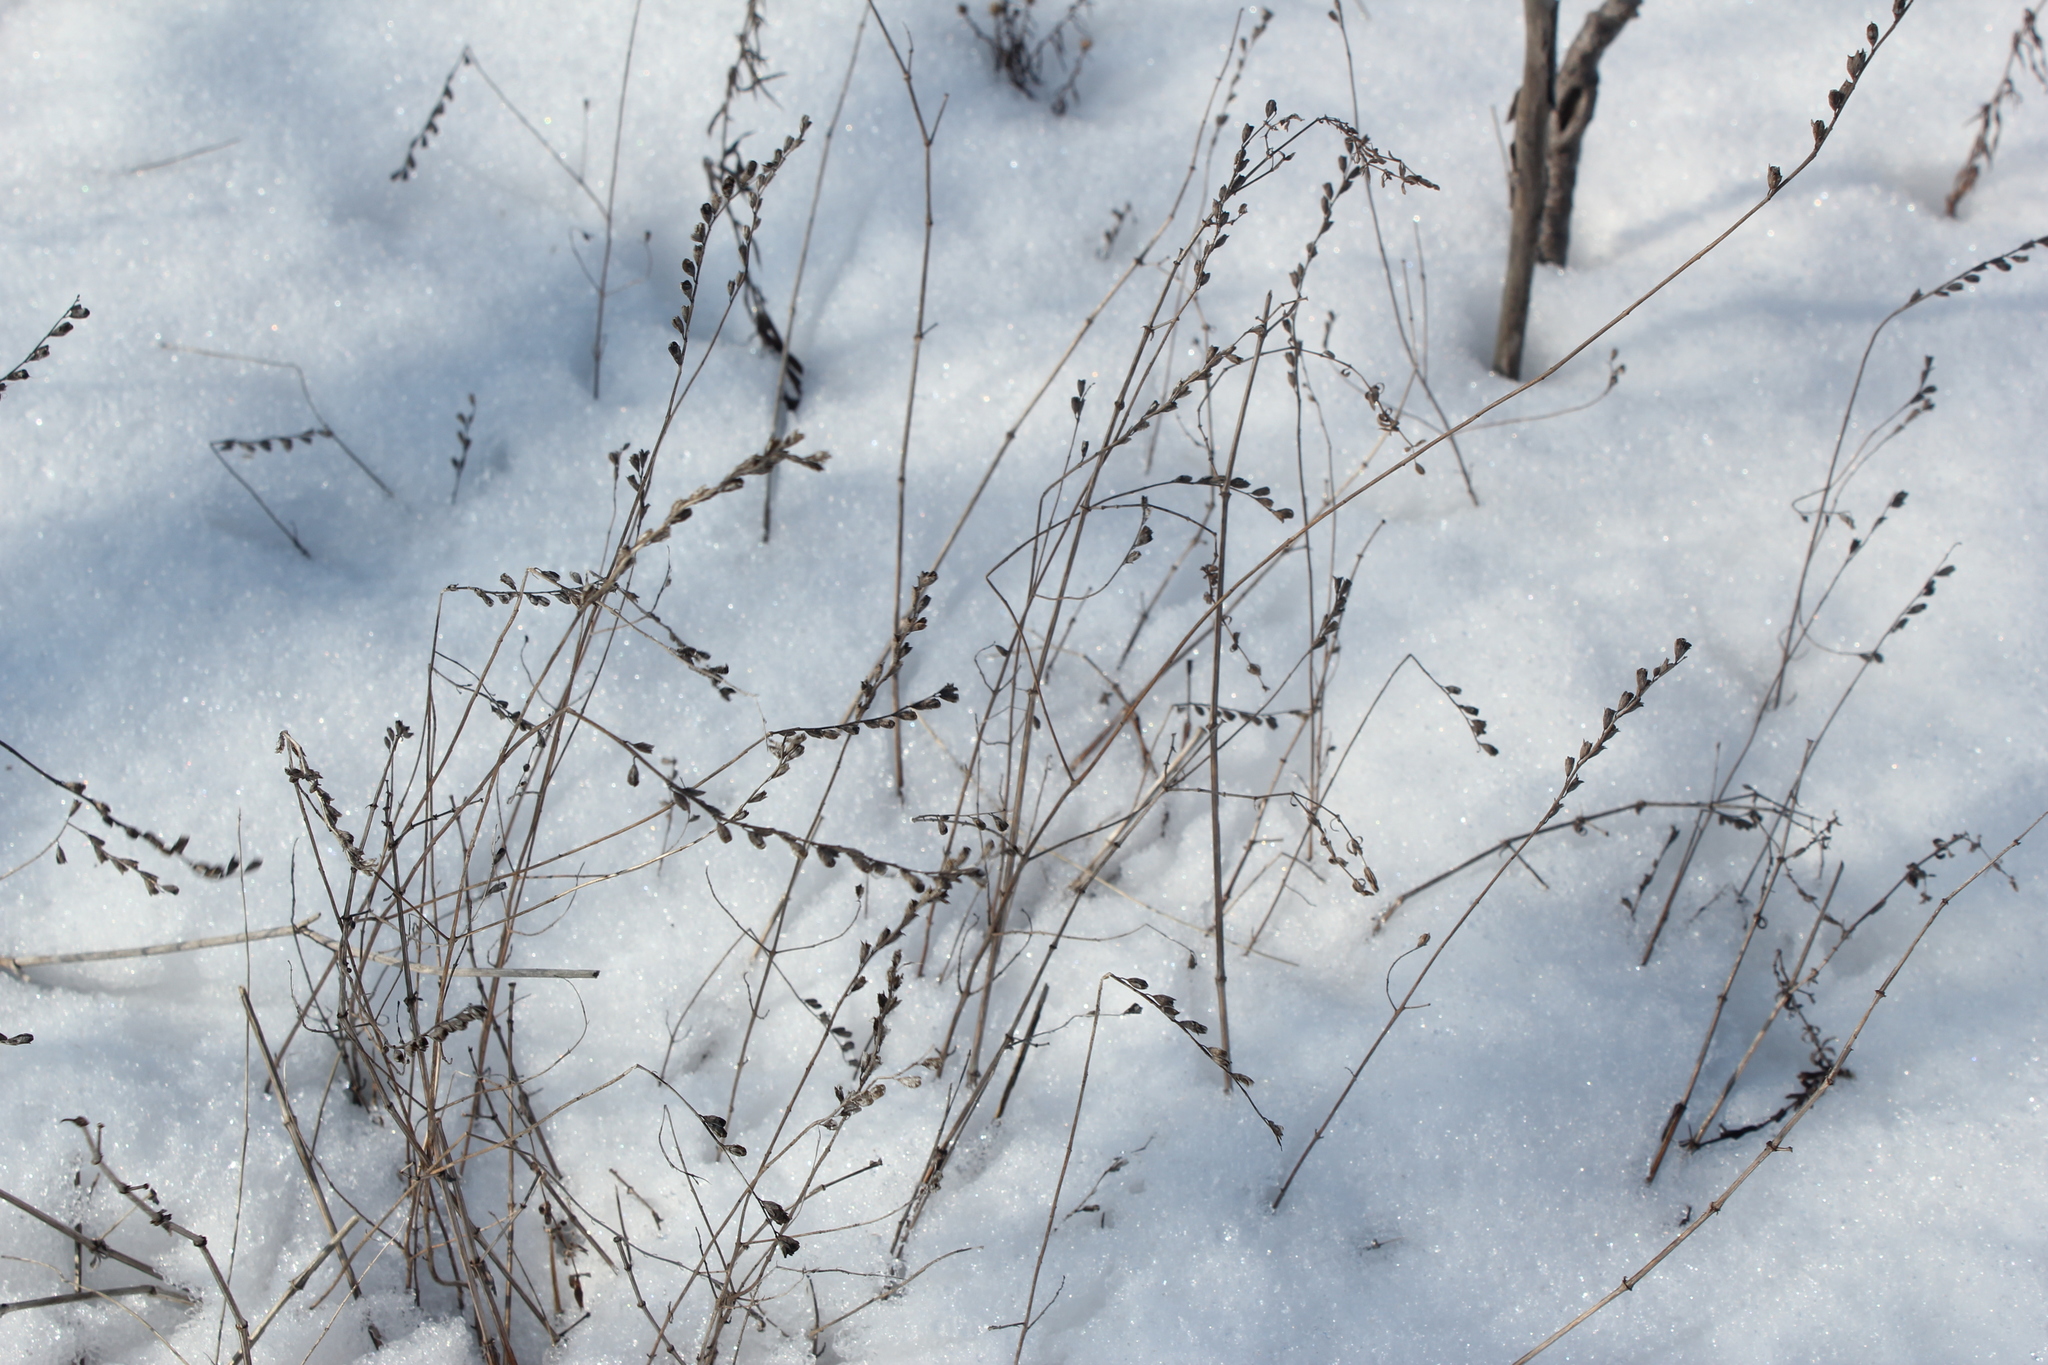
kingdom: Plantae
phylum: Tracheophyta
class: Magnoliopsida
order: Lamiales
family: Orobanchaceae
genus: Odontites
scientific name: Odontites vulgaris
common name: Broomrape
